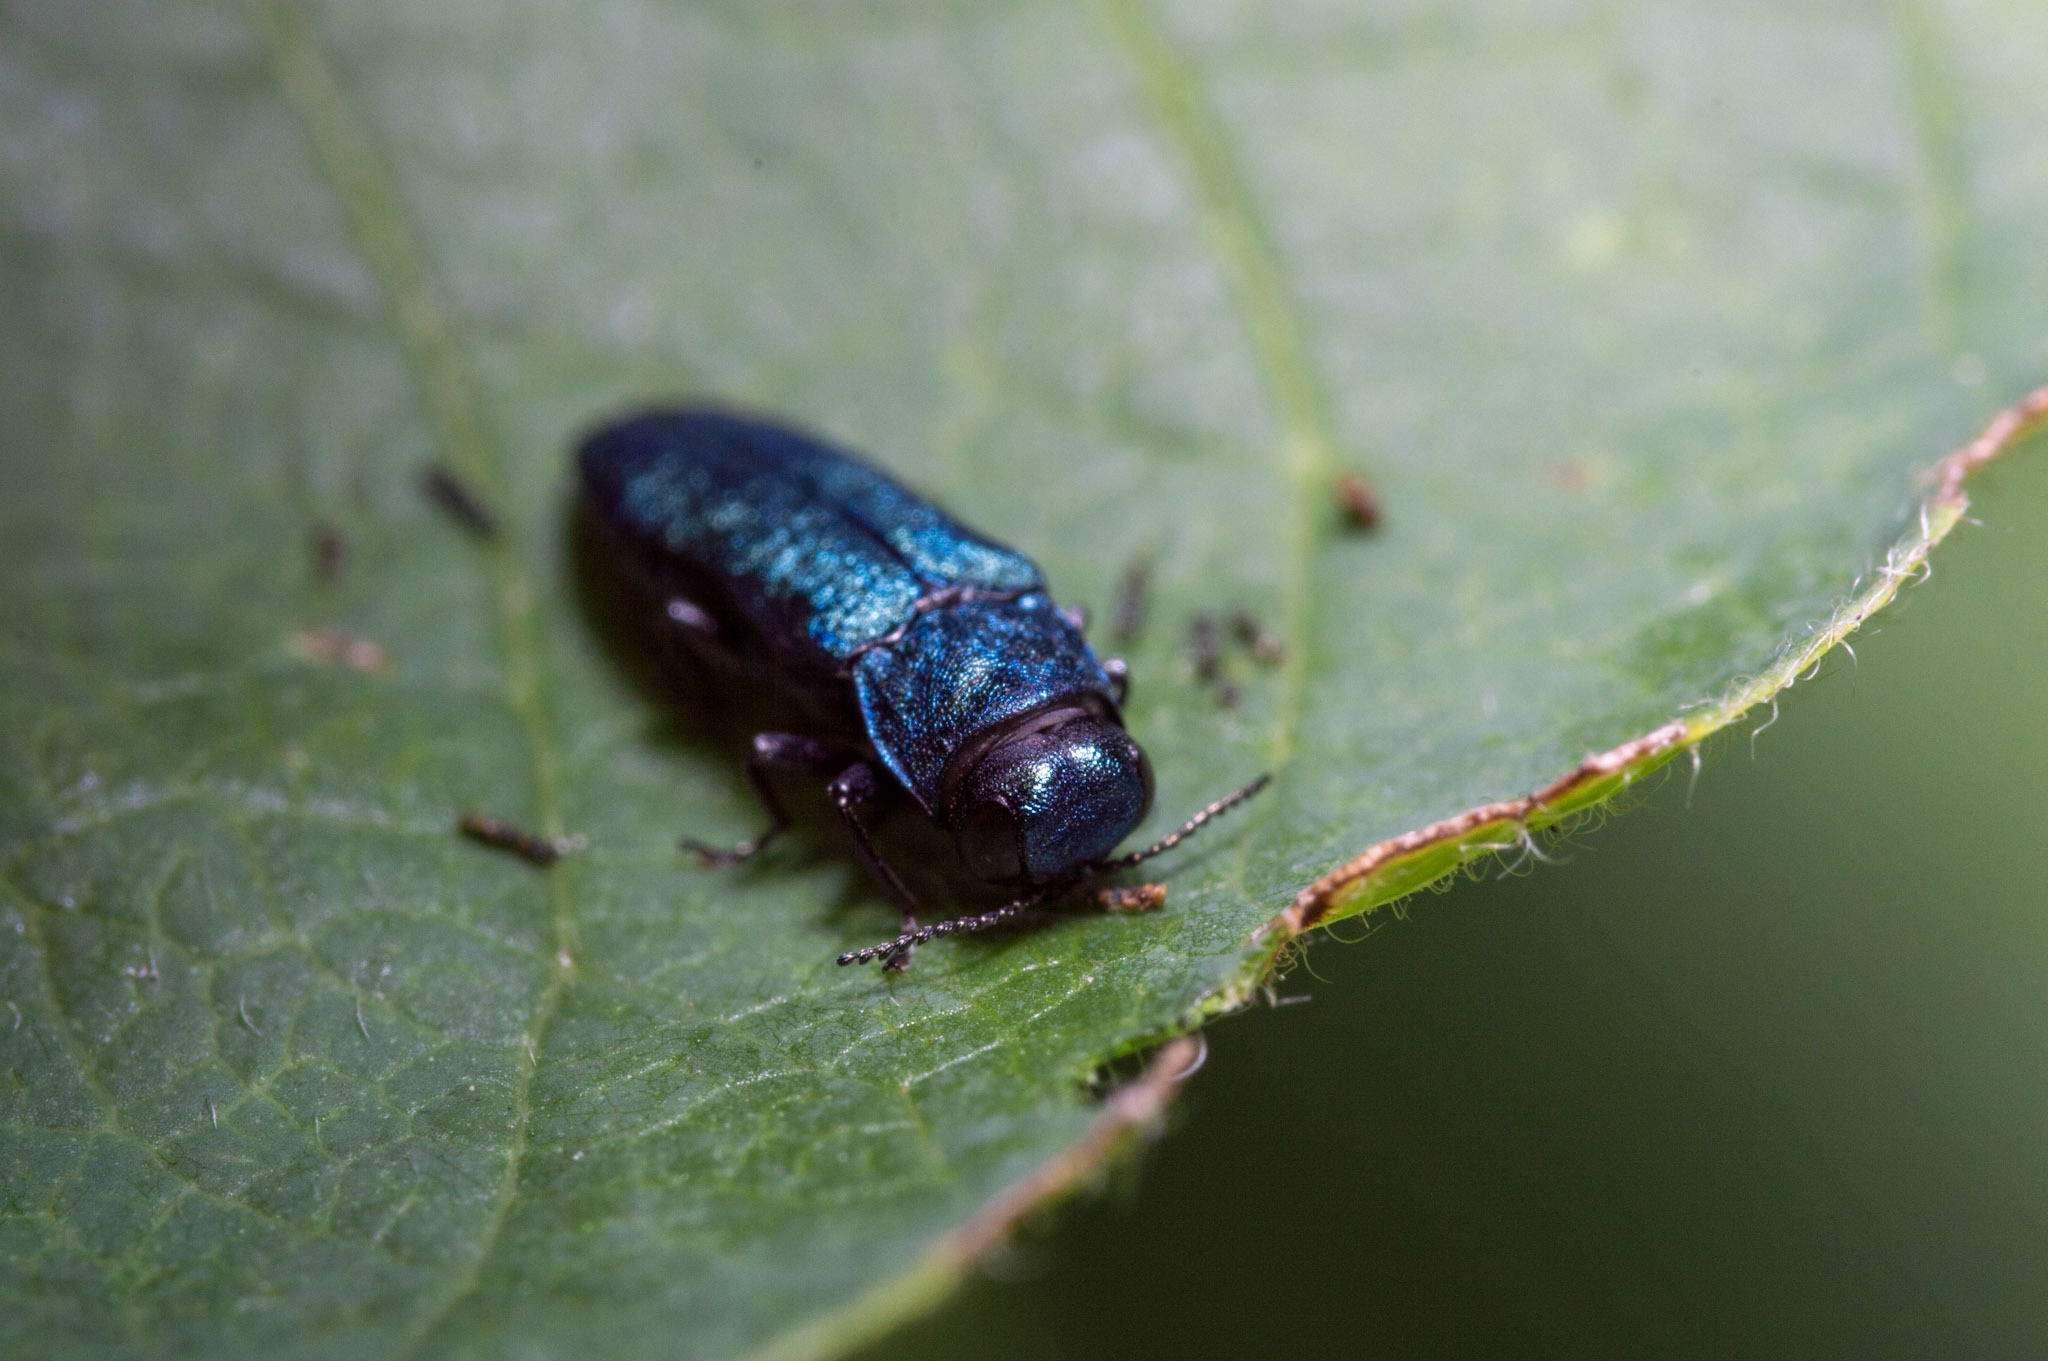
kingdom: Animalia
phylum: Arthropoda
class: Insecta
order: Coleoptera
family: Buprestidae
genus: Agrilus
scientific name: Agrilus cyanescens
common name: Bluish borer beetle
